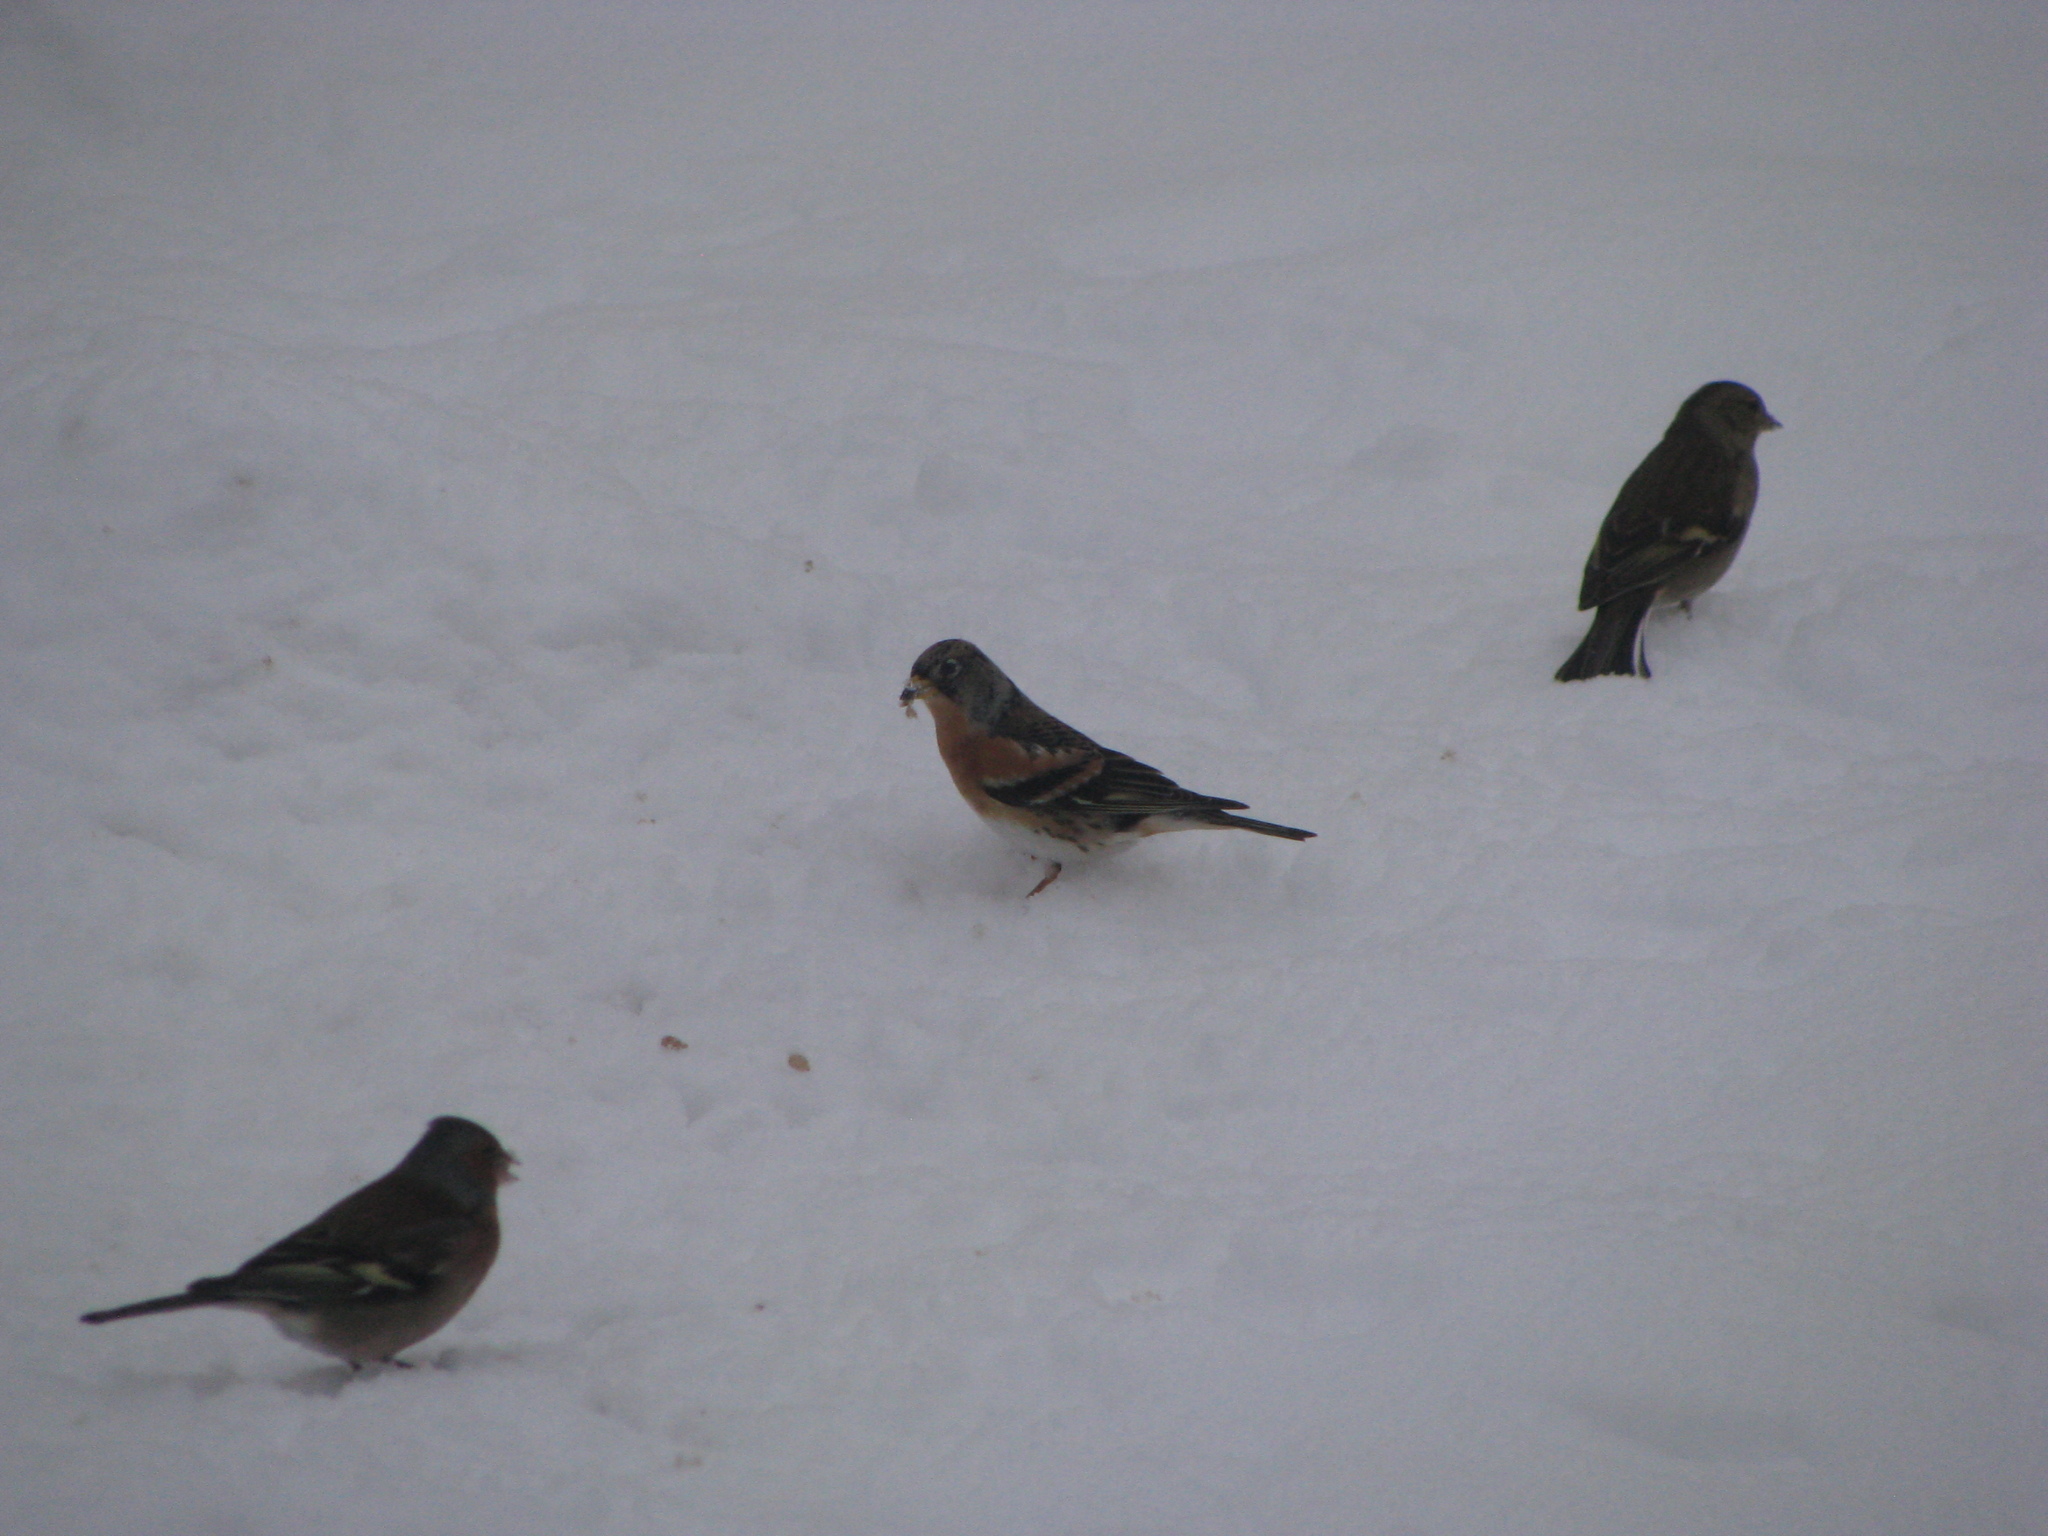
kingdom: Animalia
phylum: Chordata
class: Aves
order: Passeriformes
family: Fringillidae
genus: Fringilla
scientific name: Fringilla montifringilla
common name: Brambling
